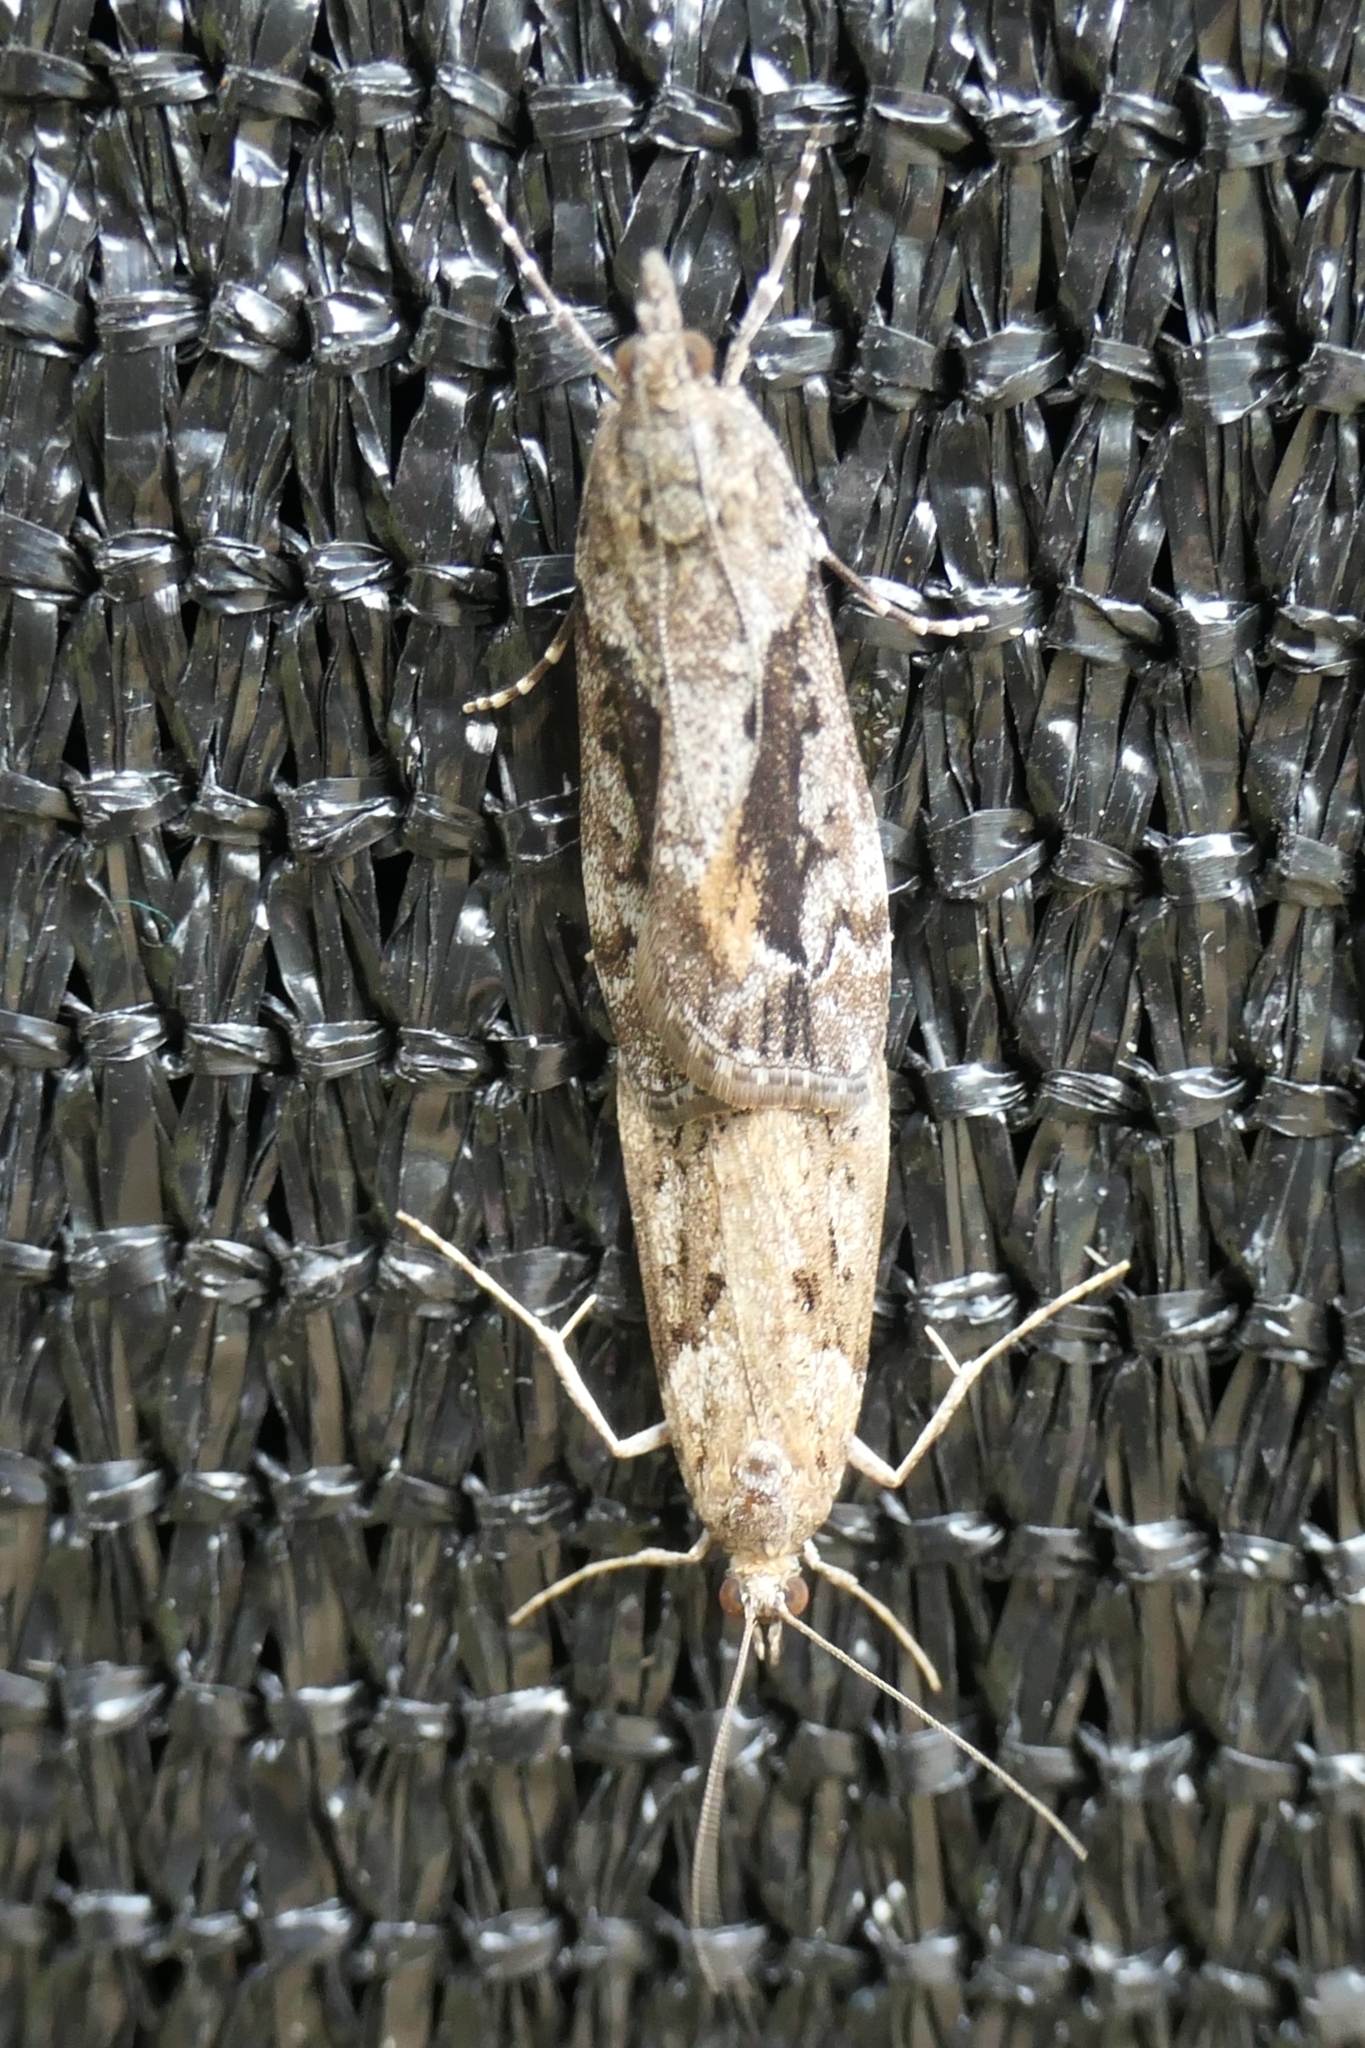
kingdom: Animalia
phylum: Arthropoda
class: Insecta
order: Lepidoptera
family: Crambidae
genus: Eudonia
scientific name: Eudonia submarginalis
